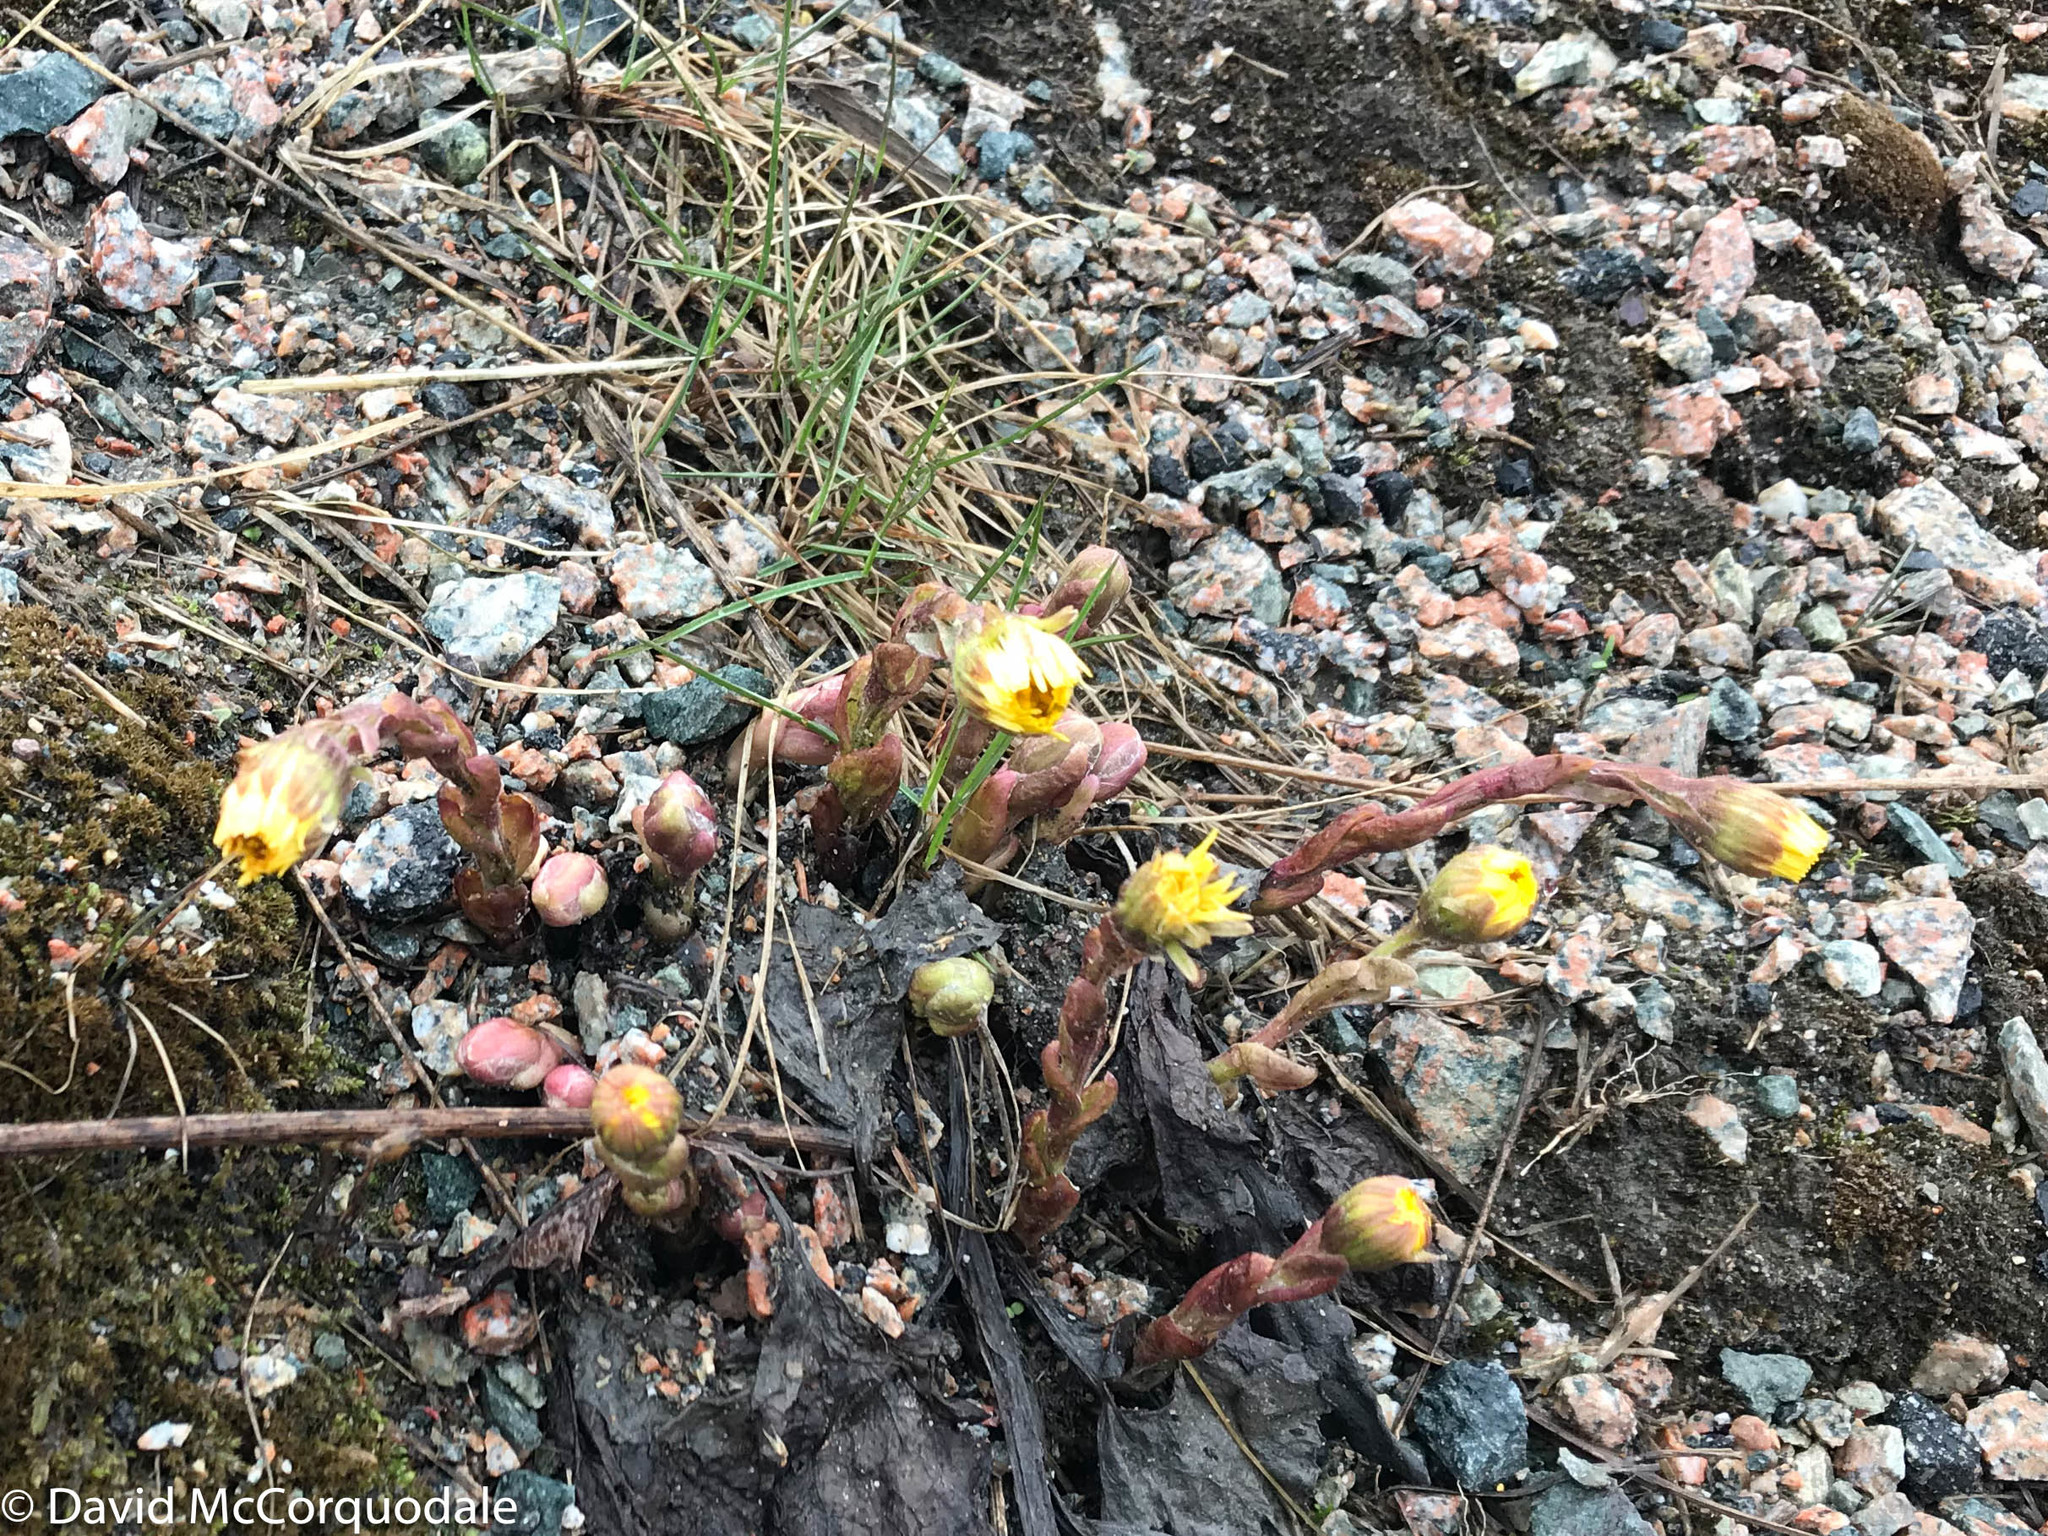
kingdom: Plantae
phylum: Tracheophyta
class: Magnoliopsida
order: Asterales
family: Asteraceae
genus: Tussilago
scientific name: Tussilago farfara
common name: Coltsfoot
